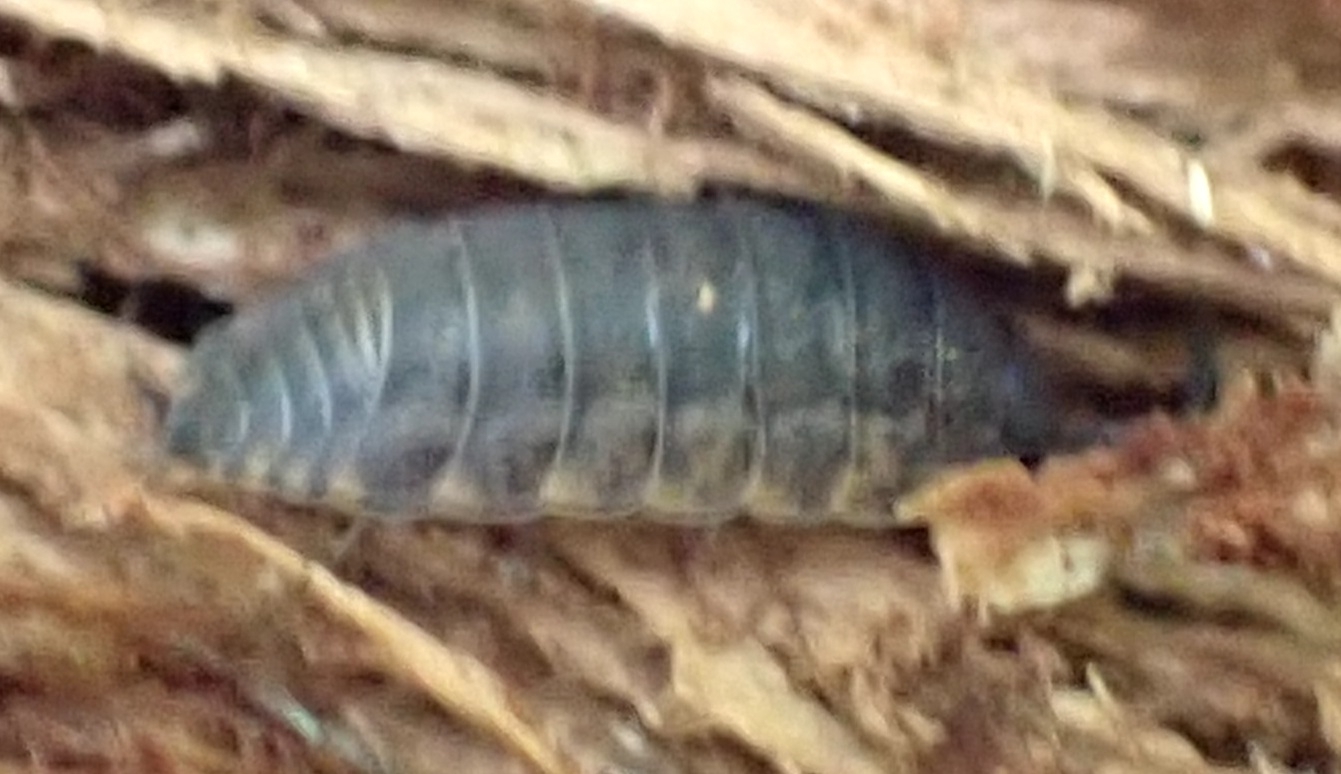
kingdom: Animalia
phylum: Arthropoda
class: Malacostraca
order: Isopoda
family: Trachelipodidae
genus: Trachelipus
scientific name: Trachelipus rathkii
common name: Isopod
